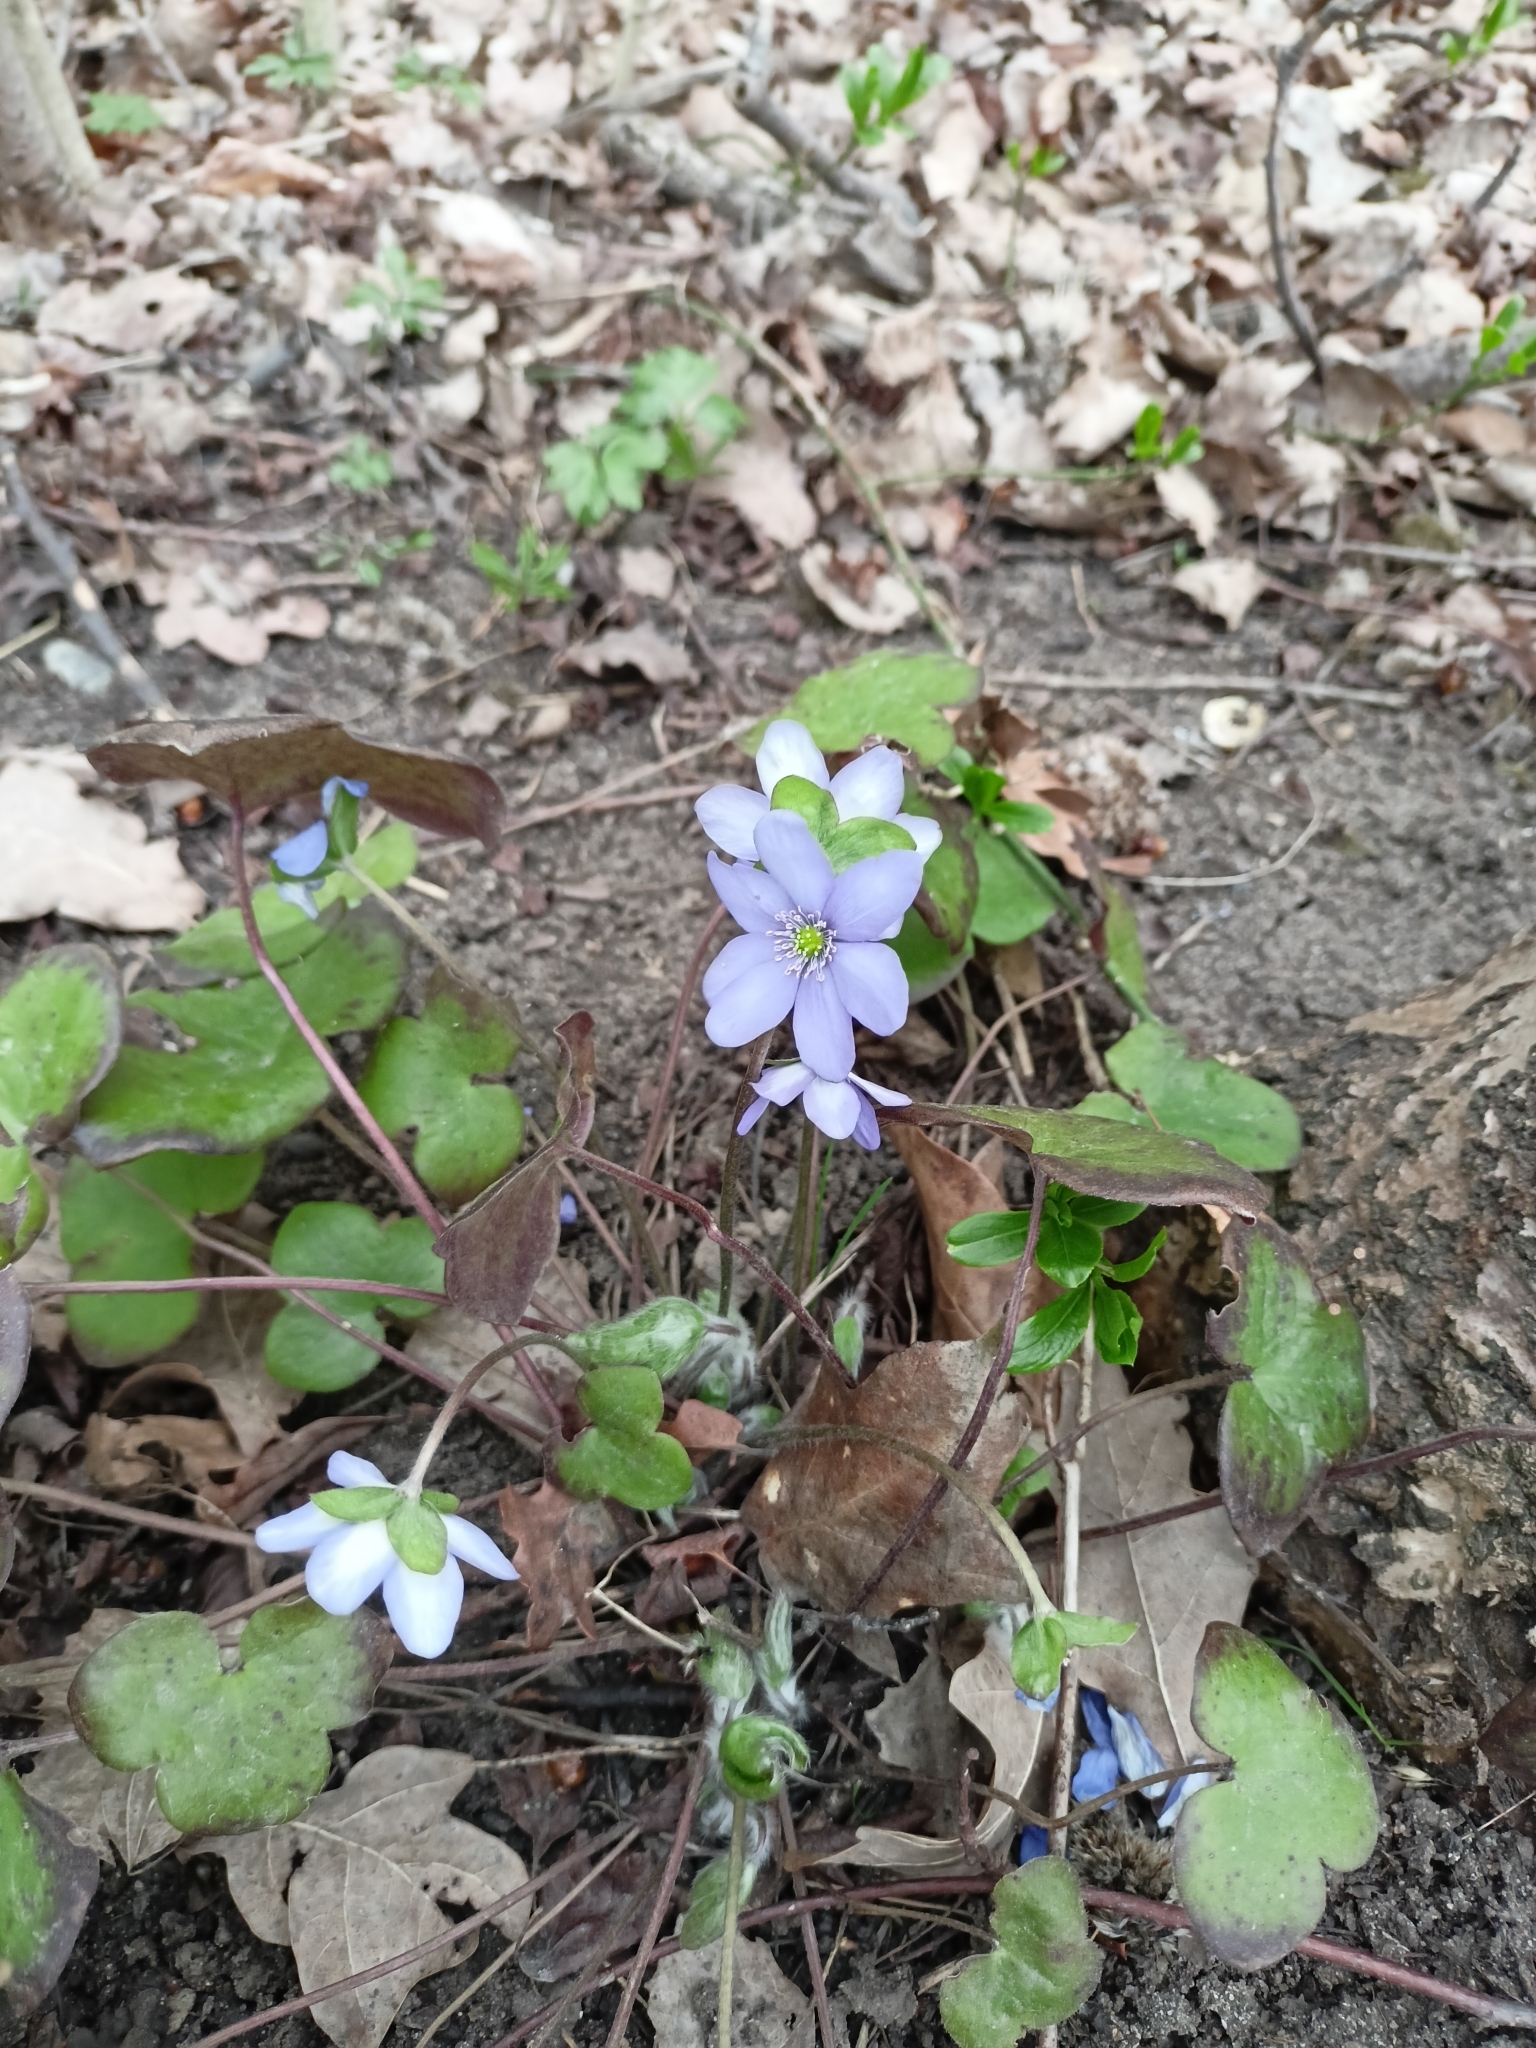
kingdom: Plantae
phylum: Tracheophyta
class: Magnoliopsida
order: Ranunculales
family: Ranunculaceae
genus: Hepatica
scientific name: Hepatica nobilis
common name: Liverleaf
